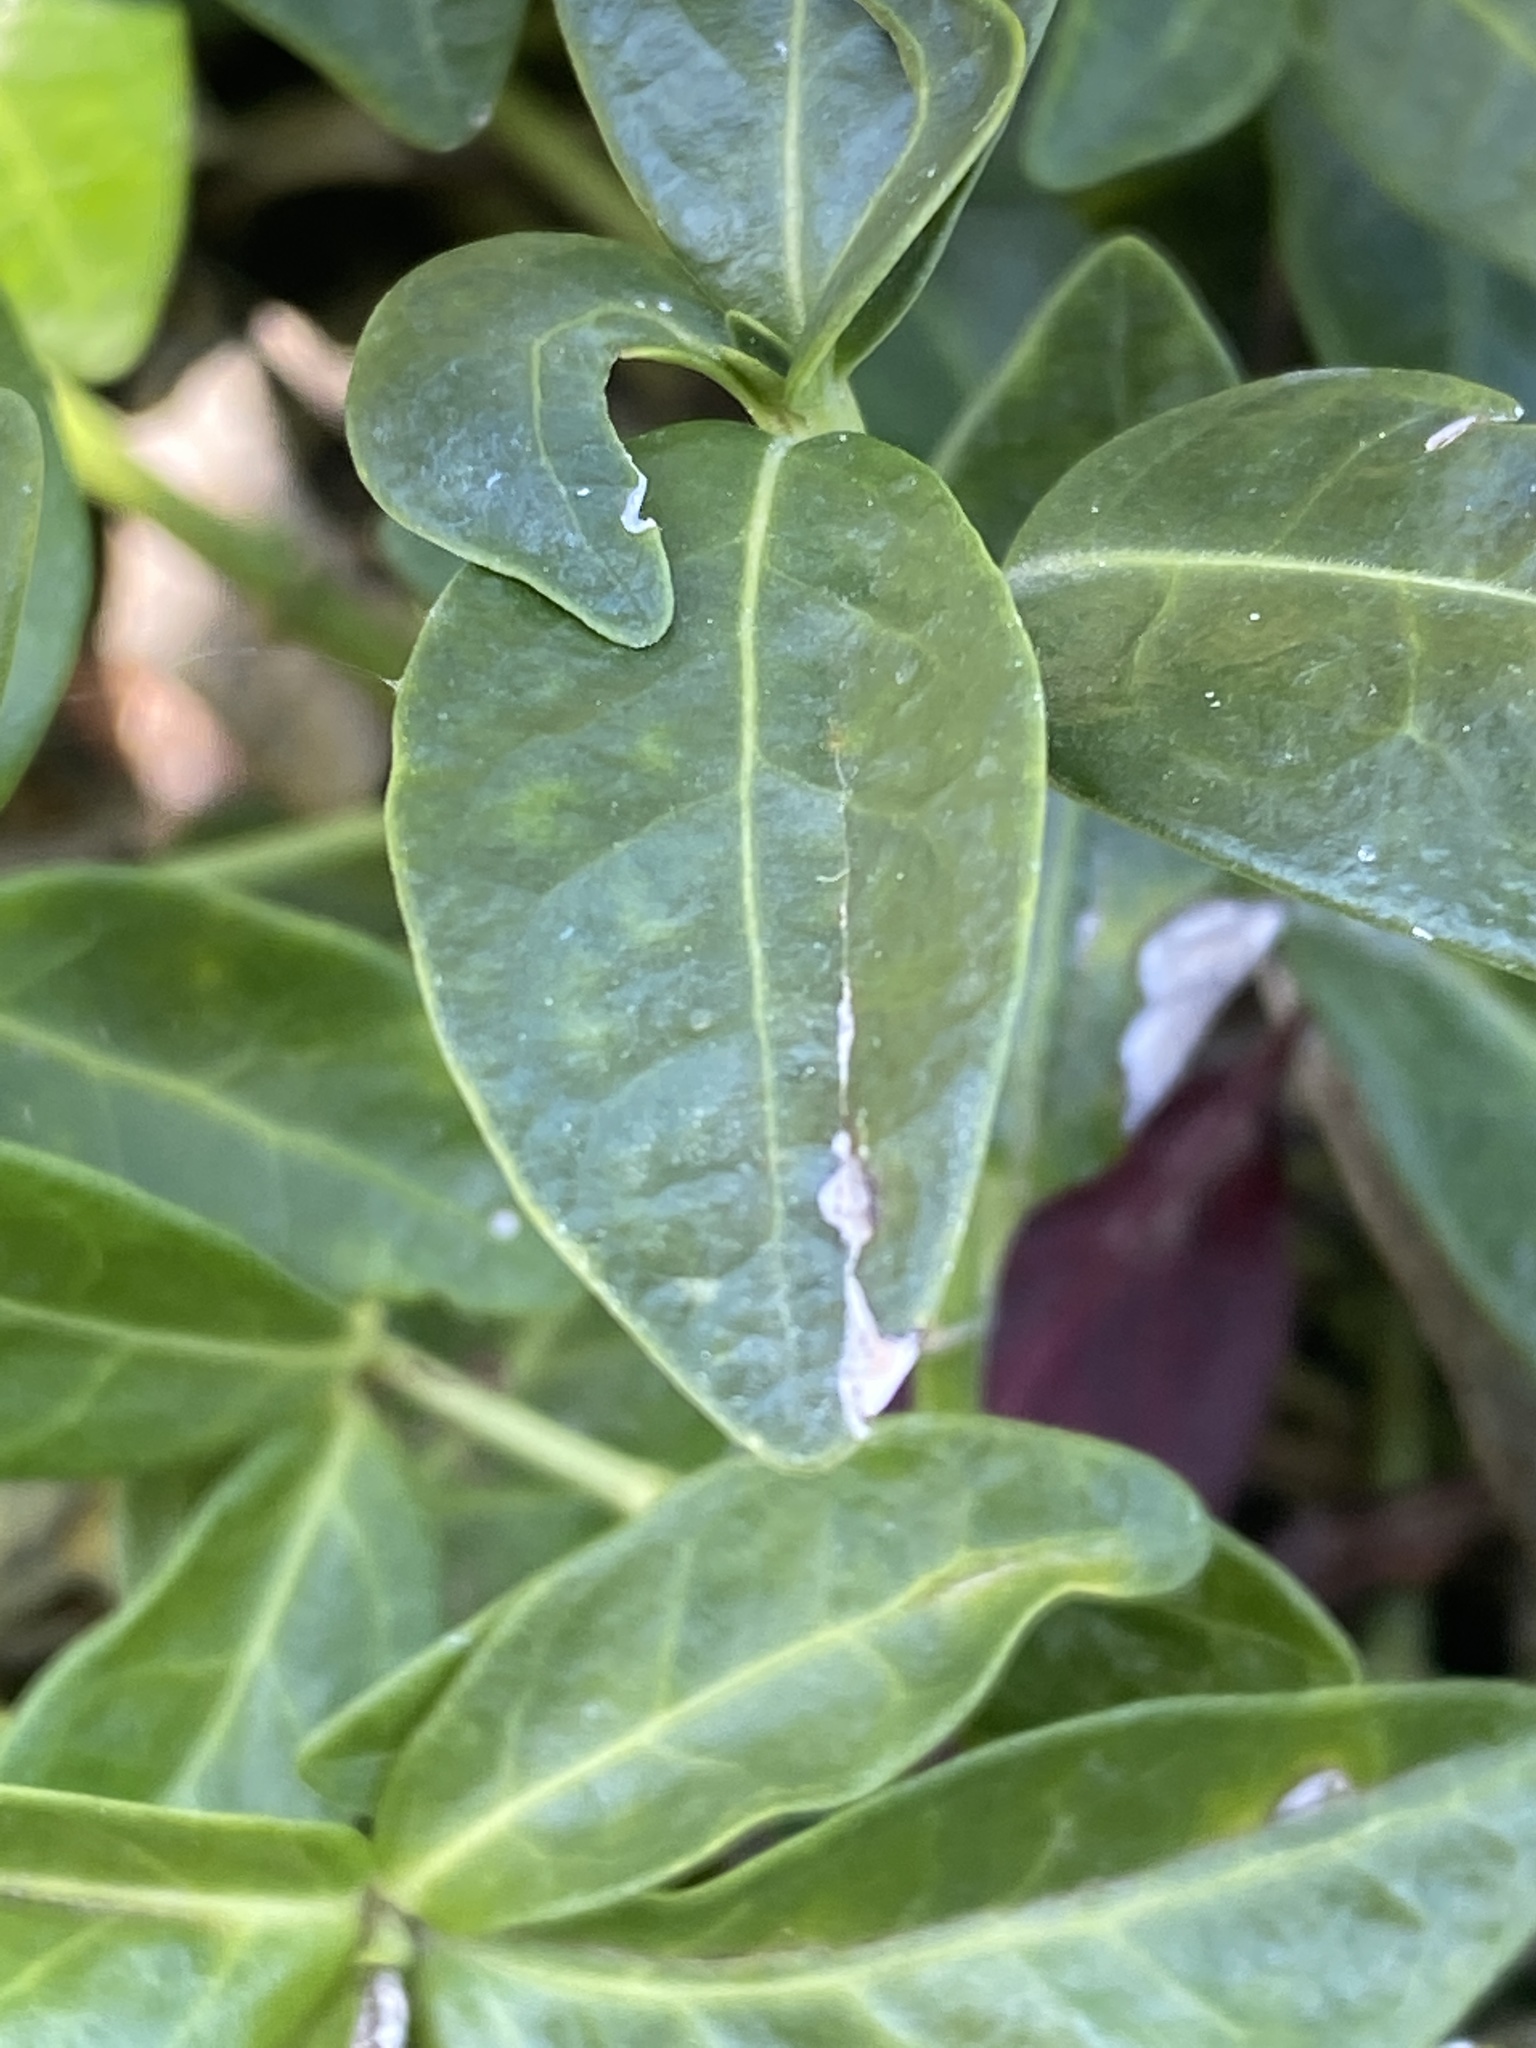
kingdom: Plantae
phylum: Tracheophyta
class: Magnoliopsida
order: Gentianales
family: Apocynaceae
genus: Vinca
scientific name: Vinca minor
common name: Lesser periwinkle
